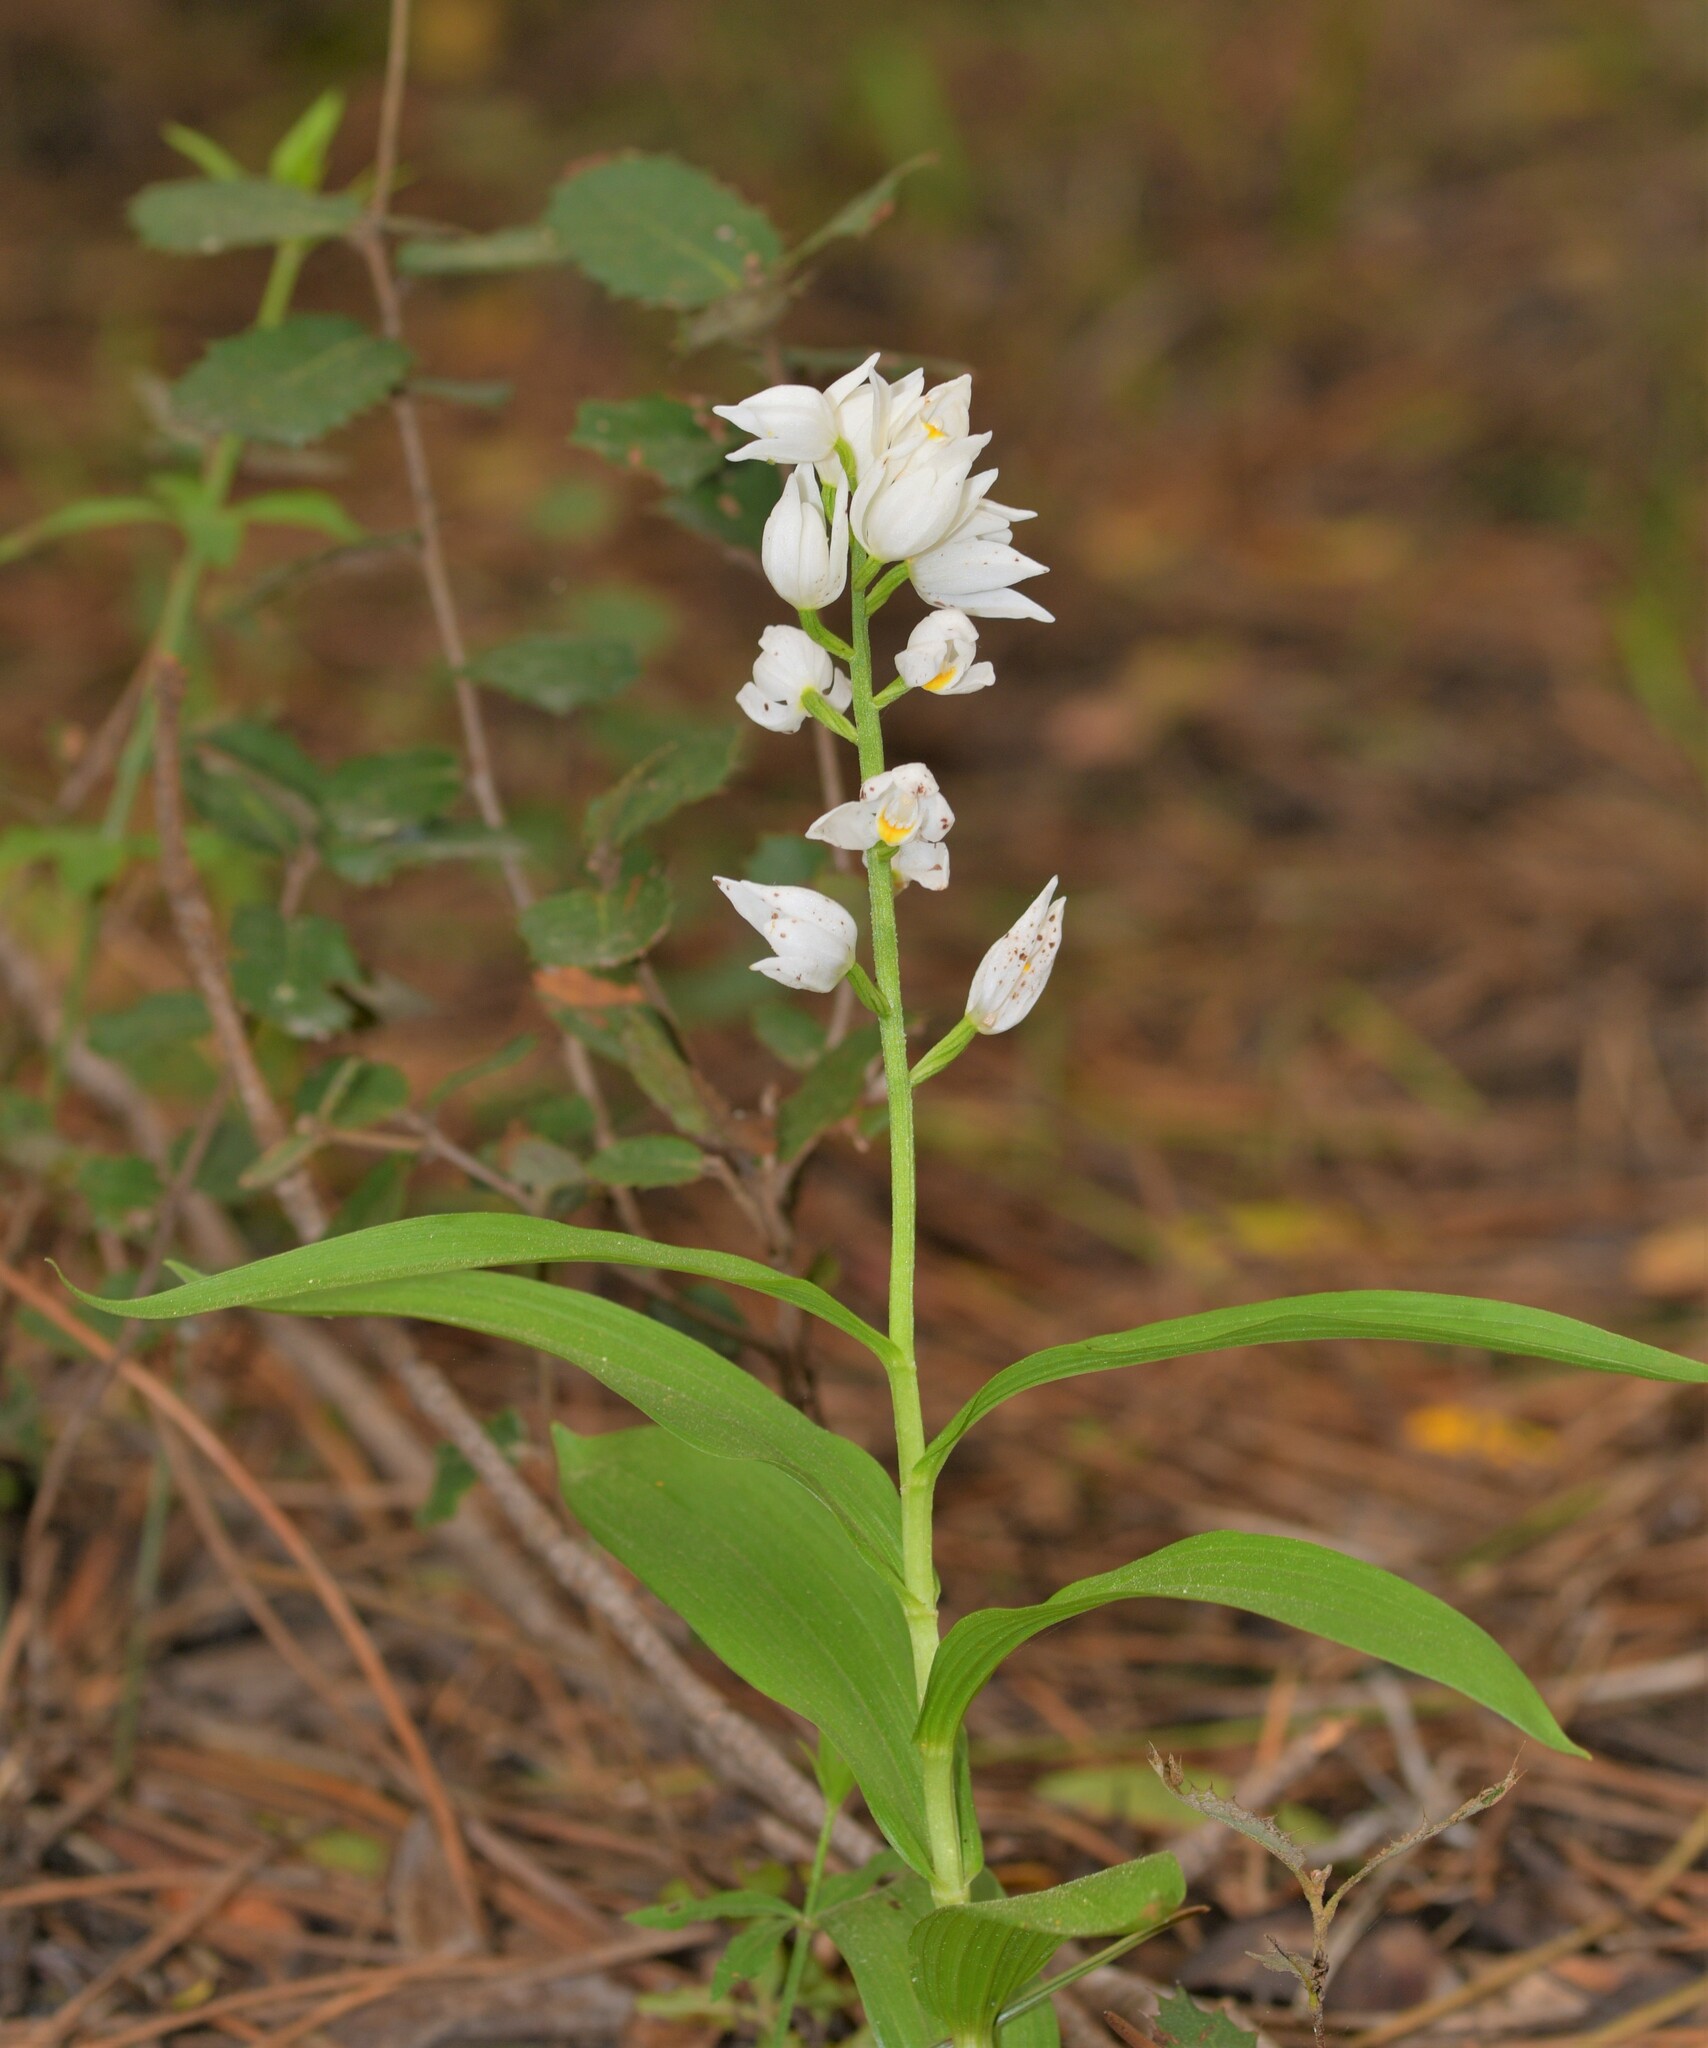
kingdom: Plantae
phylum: Tracheophyta
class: Liliopsida
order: Asparagales
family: Orchidaceae
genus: Cephalanthera
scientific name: Cephalanthera longifolia
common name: Narrow-leaved helleborine
